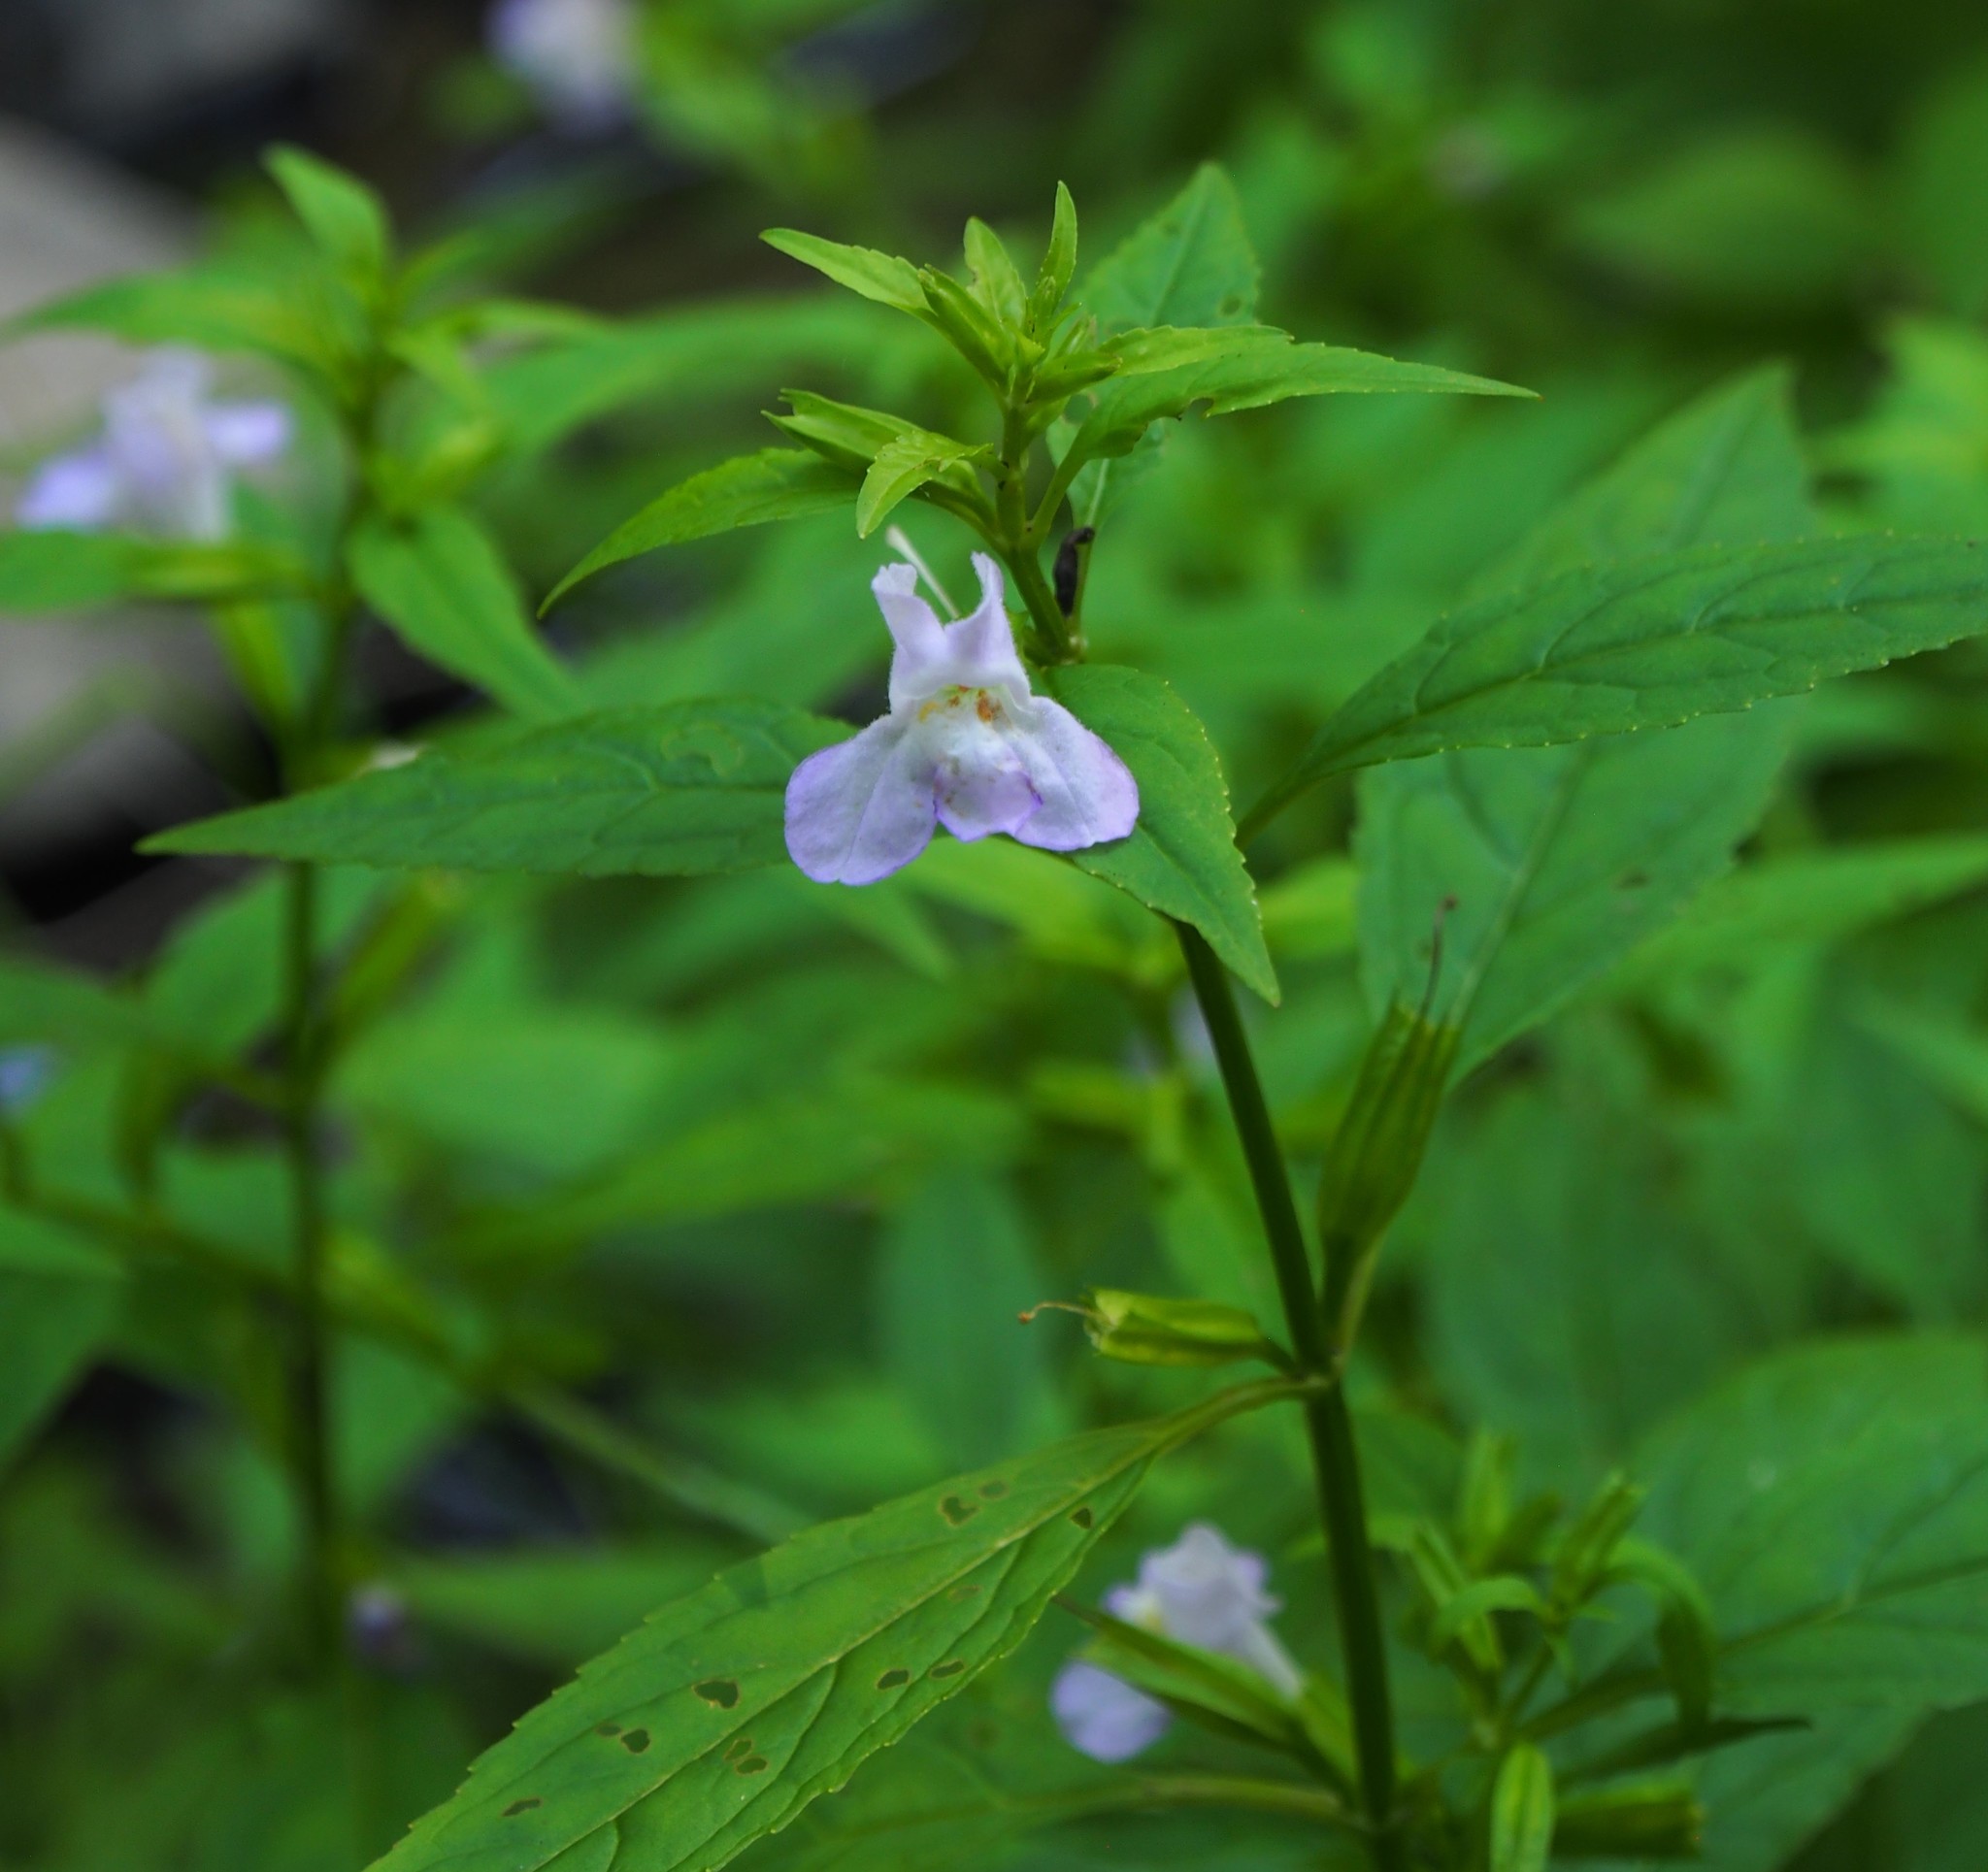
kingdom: Plantae
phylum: Tracheophyta
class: Magnoliopsida
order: Lamiales
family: Phrymaceae
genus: Mimulus
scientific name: Mimulus alatus
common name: Sharp-wing monkey-flower
